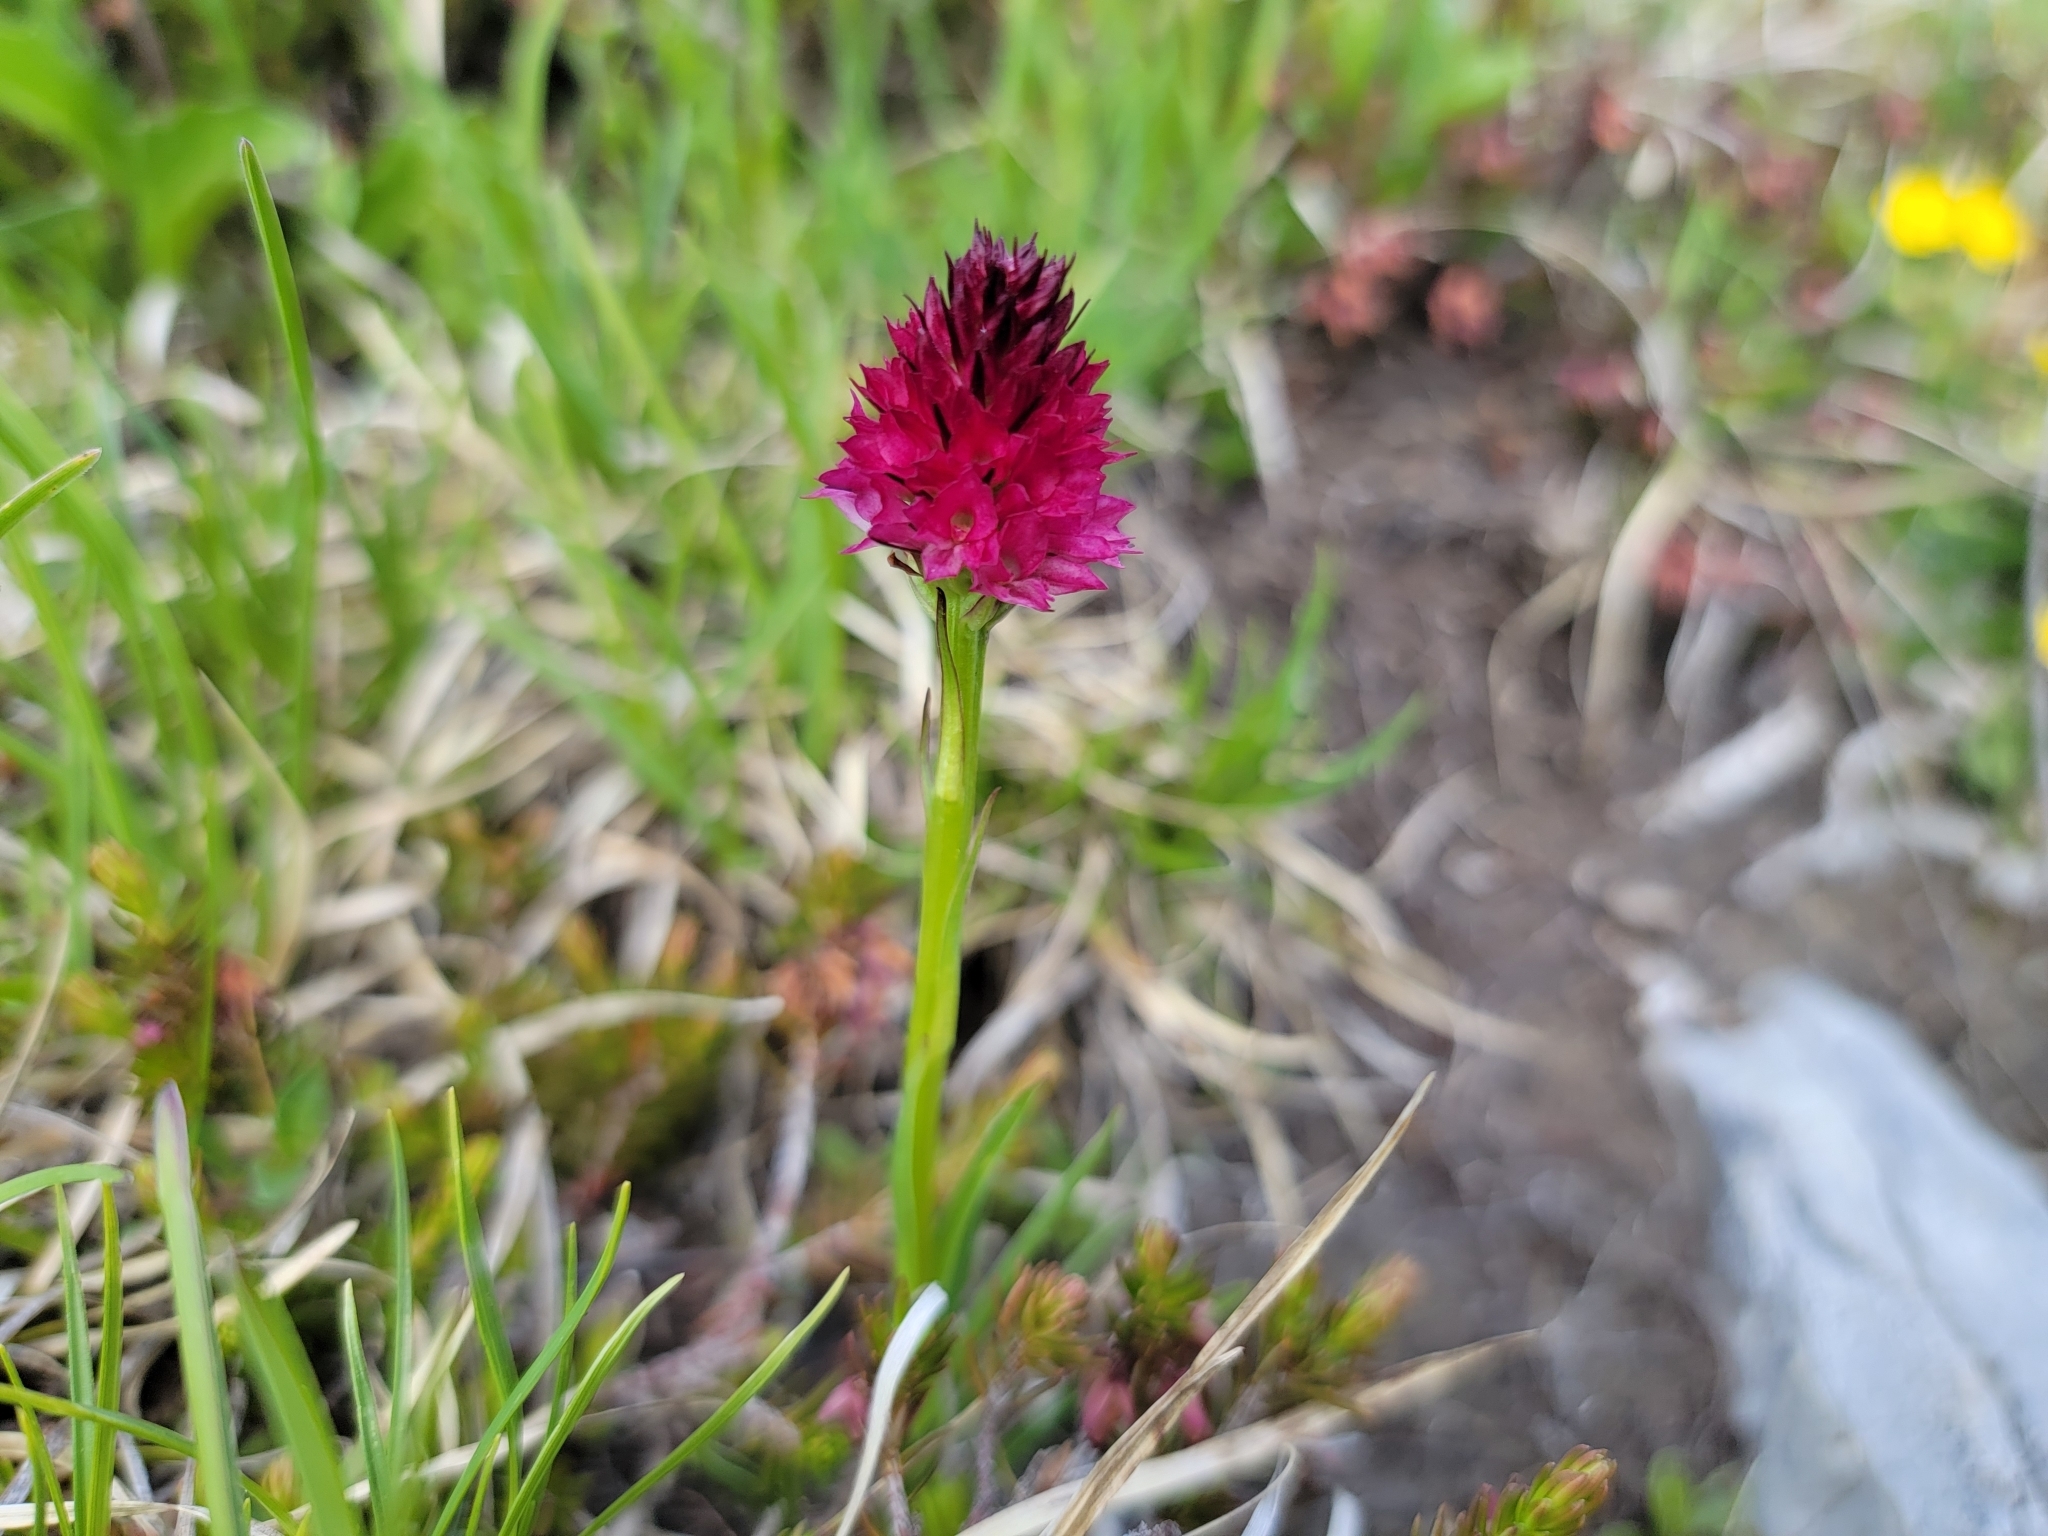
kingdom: Plantae
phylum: Tracheophyta
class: Liliopsida
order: Asparagales
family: Orchidaceae
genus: Gymnadenia
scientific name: Gymnadenia miniata
